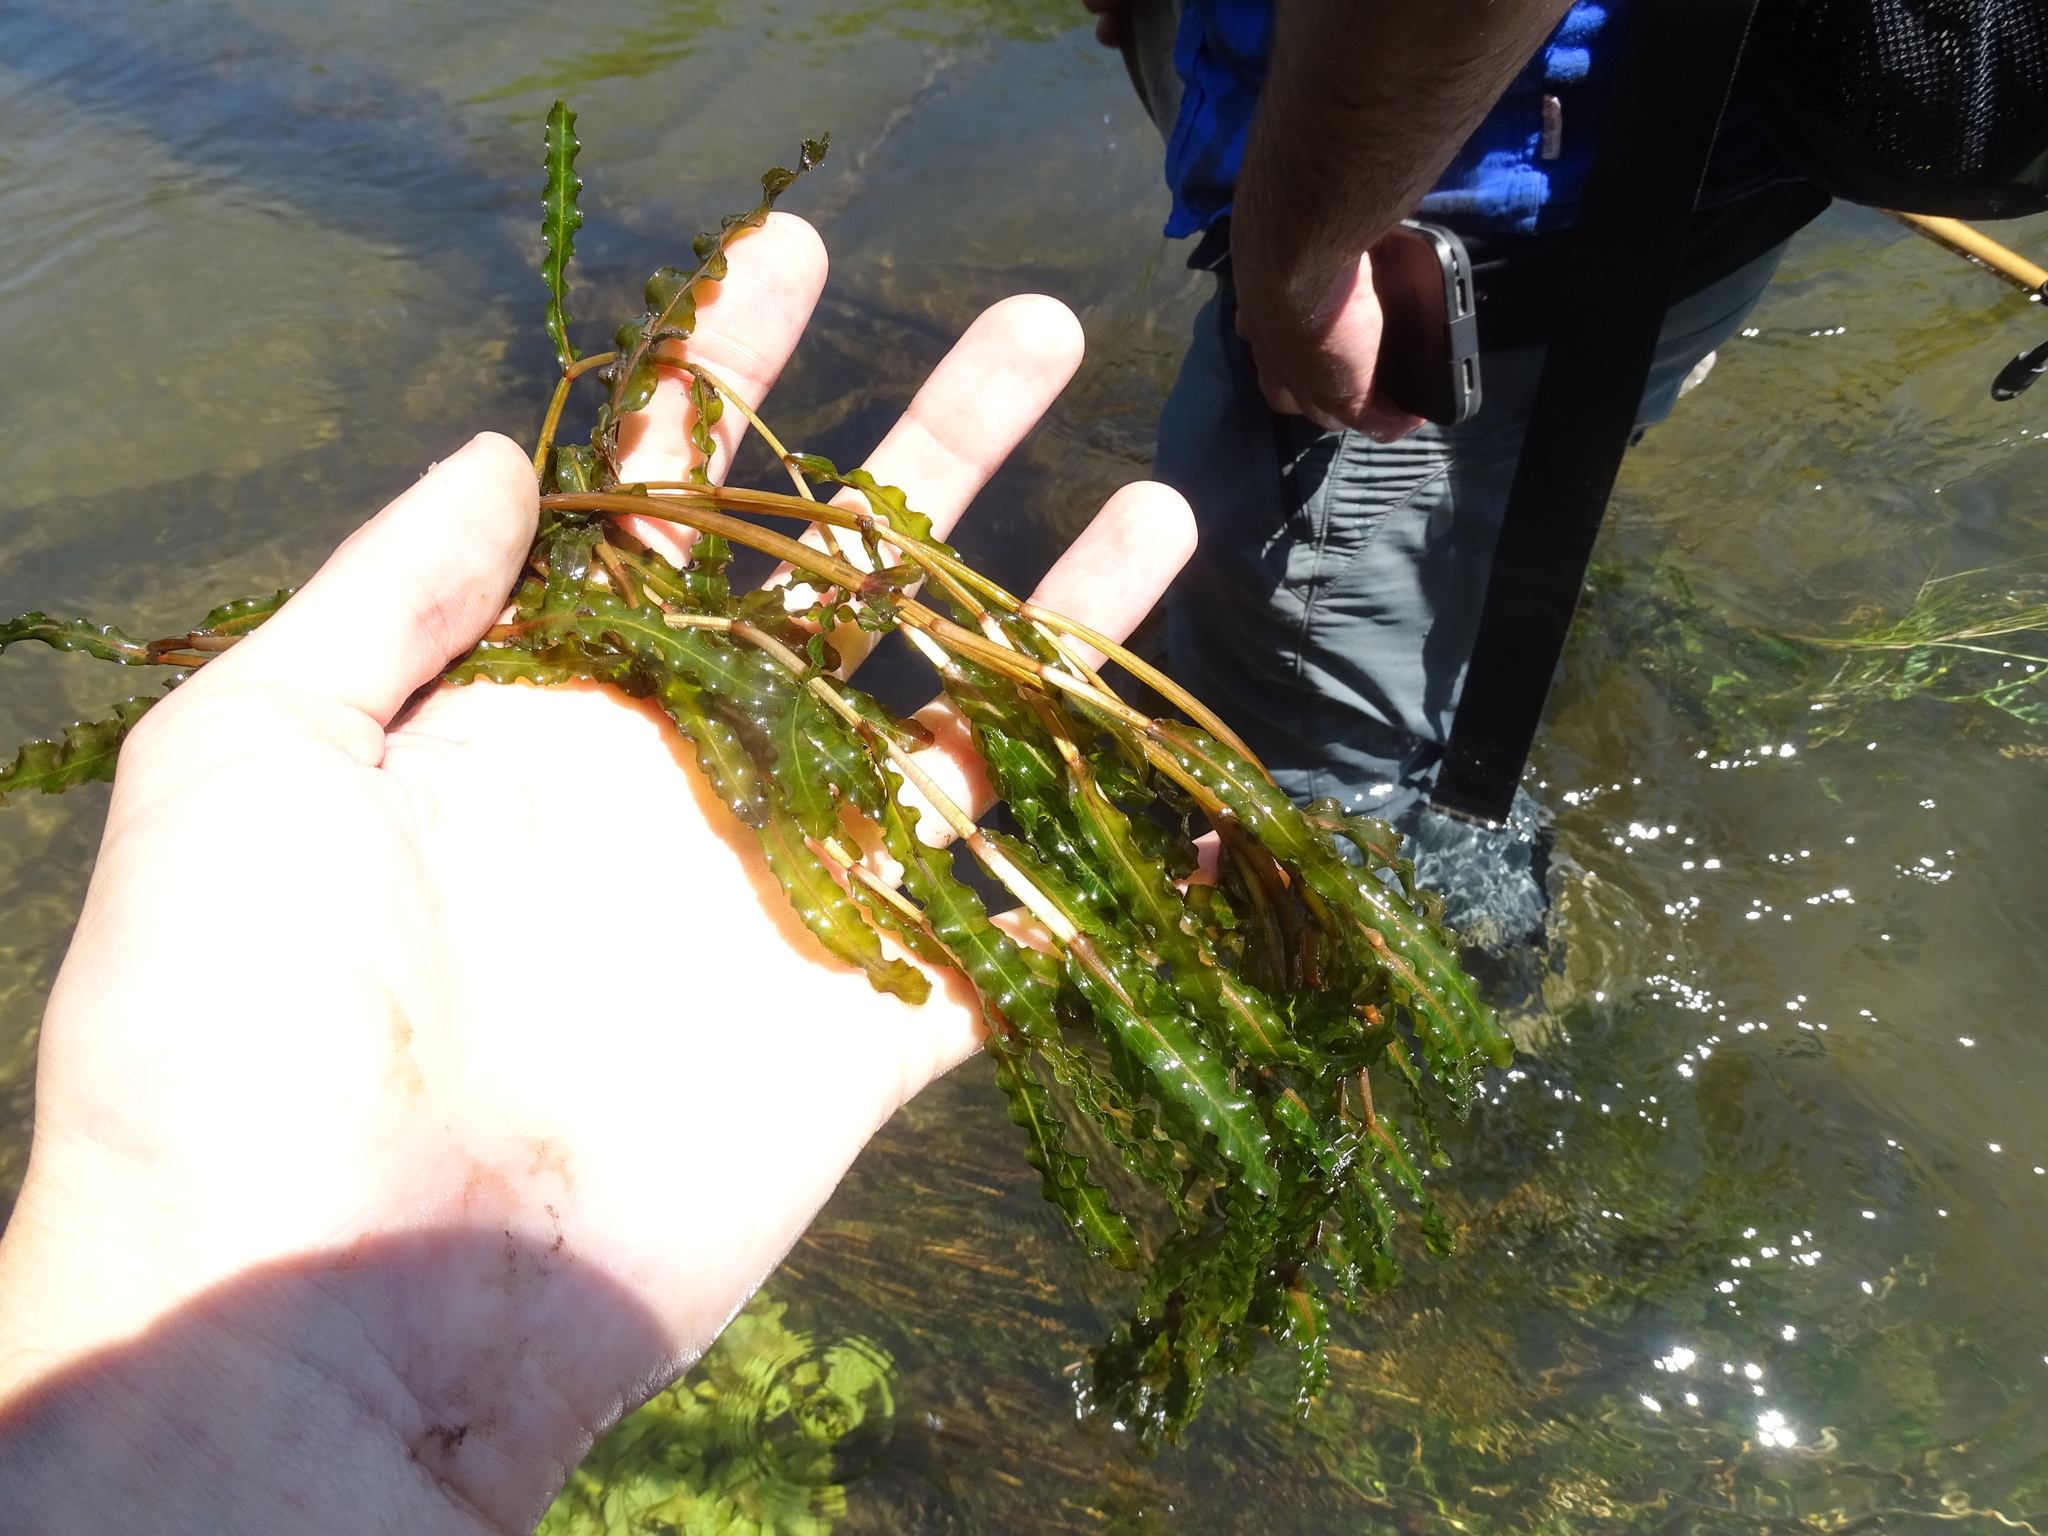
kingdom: Plantae
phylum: Tracheophyta
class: Liliopsida
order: Alismatales
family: Potamogetonaceae
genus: Potamogeton
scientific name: Potamogeton crispus
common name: Curled pondweed
